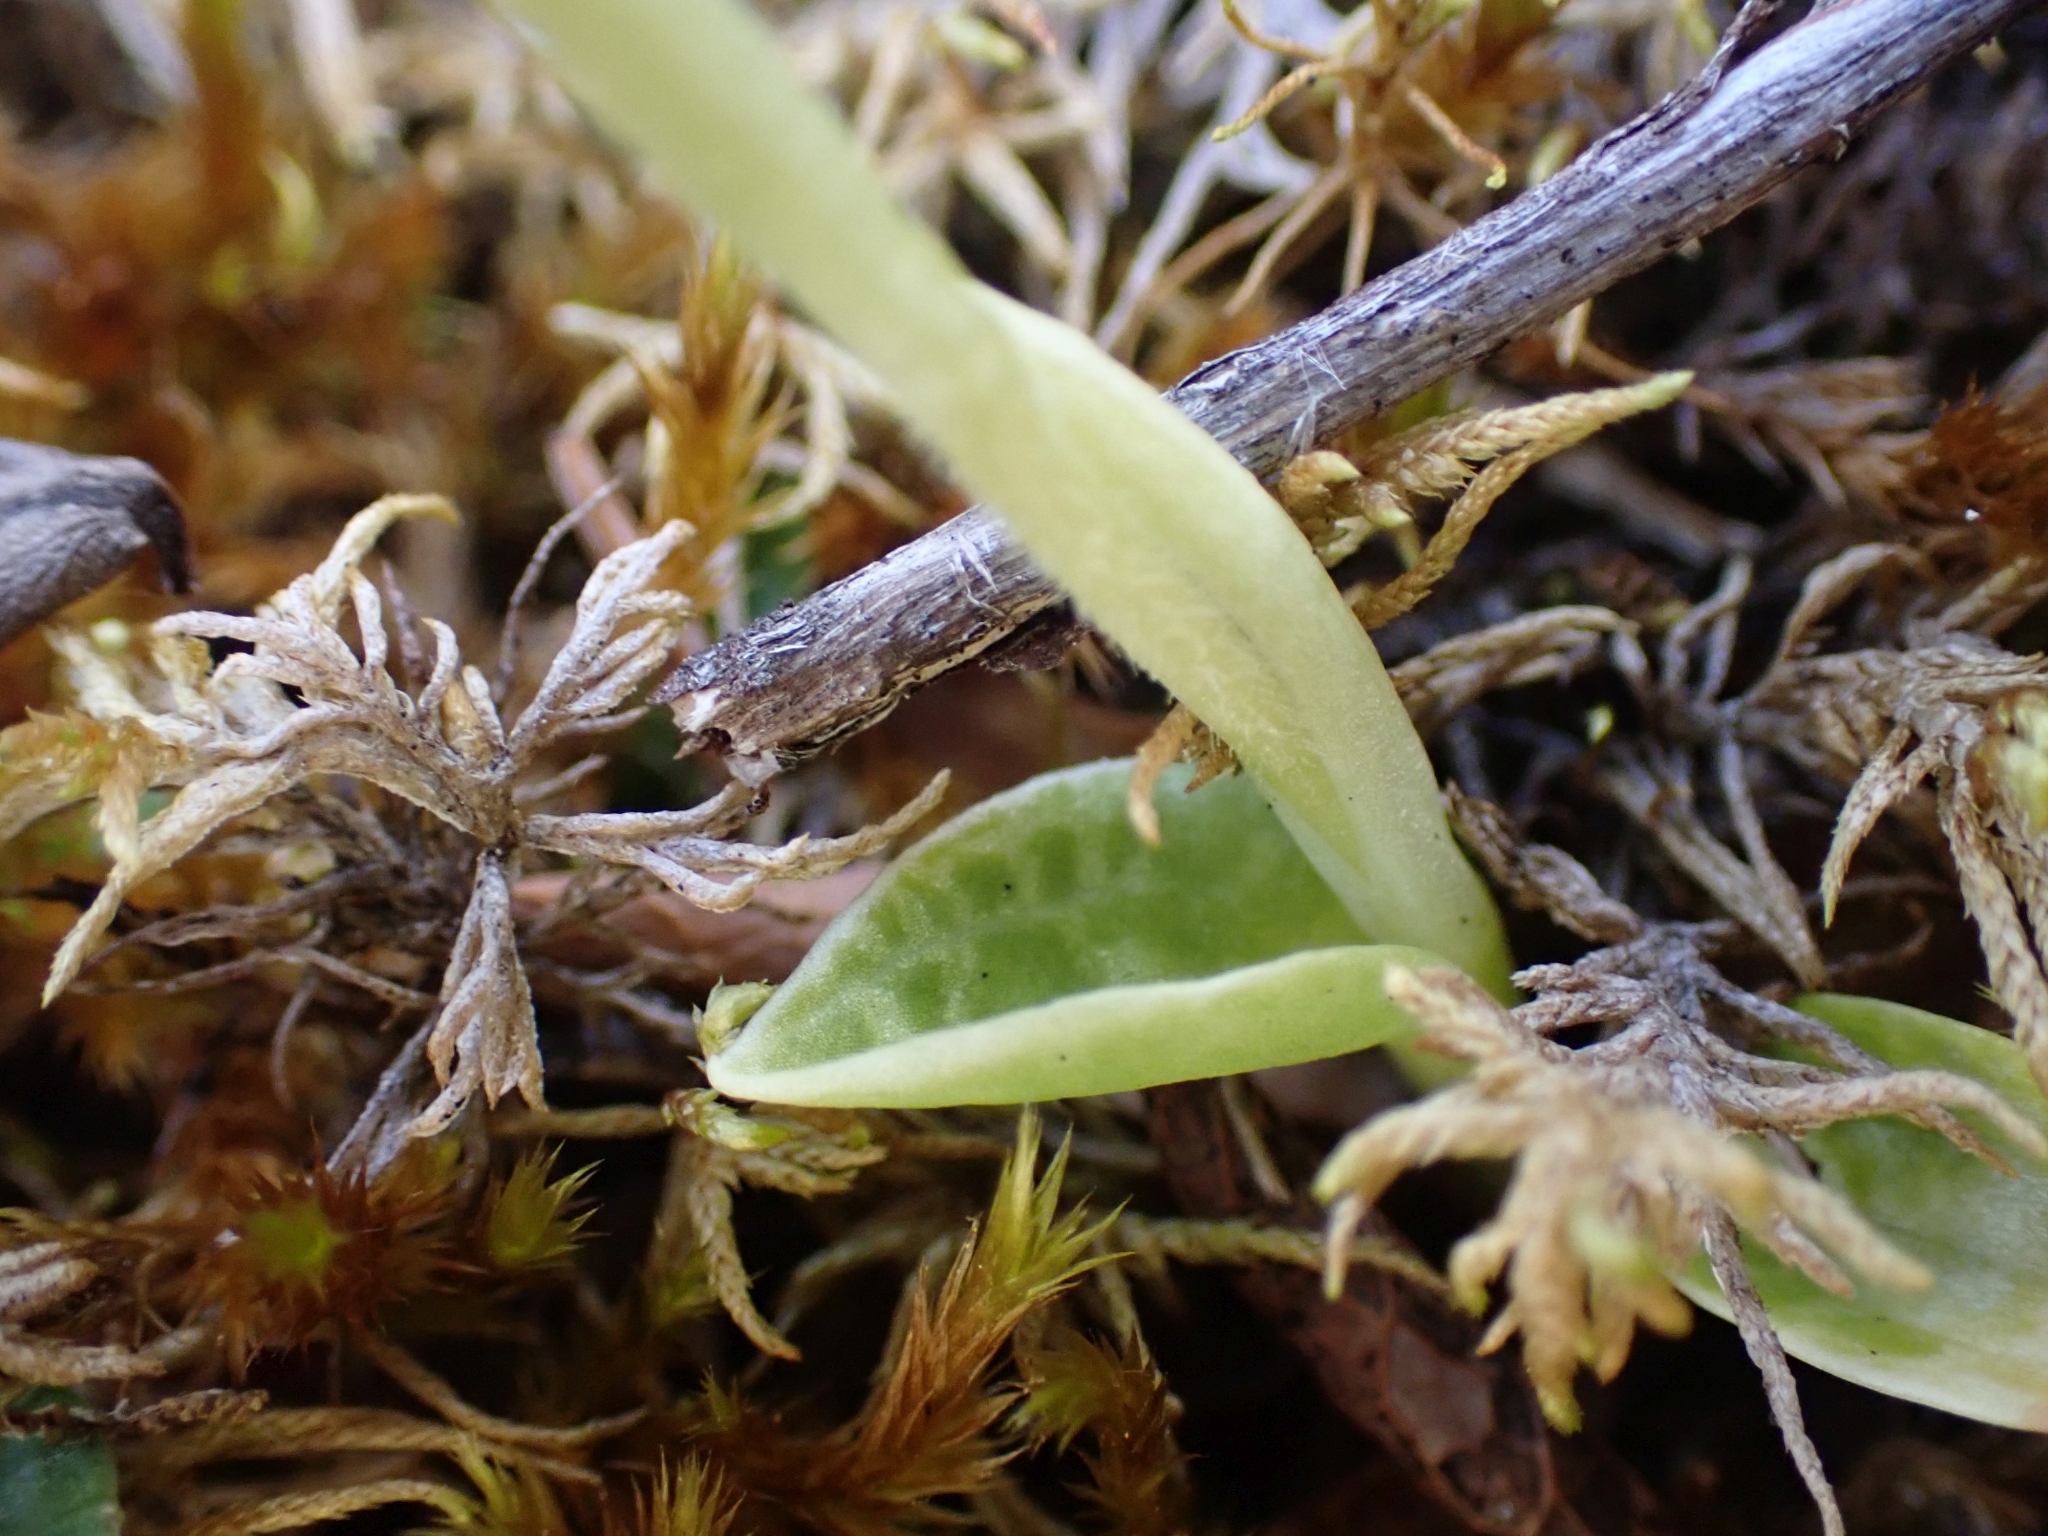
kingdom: Plantae
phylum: Tracheophyta
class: Liliopsida
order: Asparagales
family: Orchidaceae
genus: Goodyera
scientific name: Goodyera repens
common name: Creeping lady's-tresses
